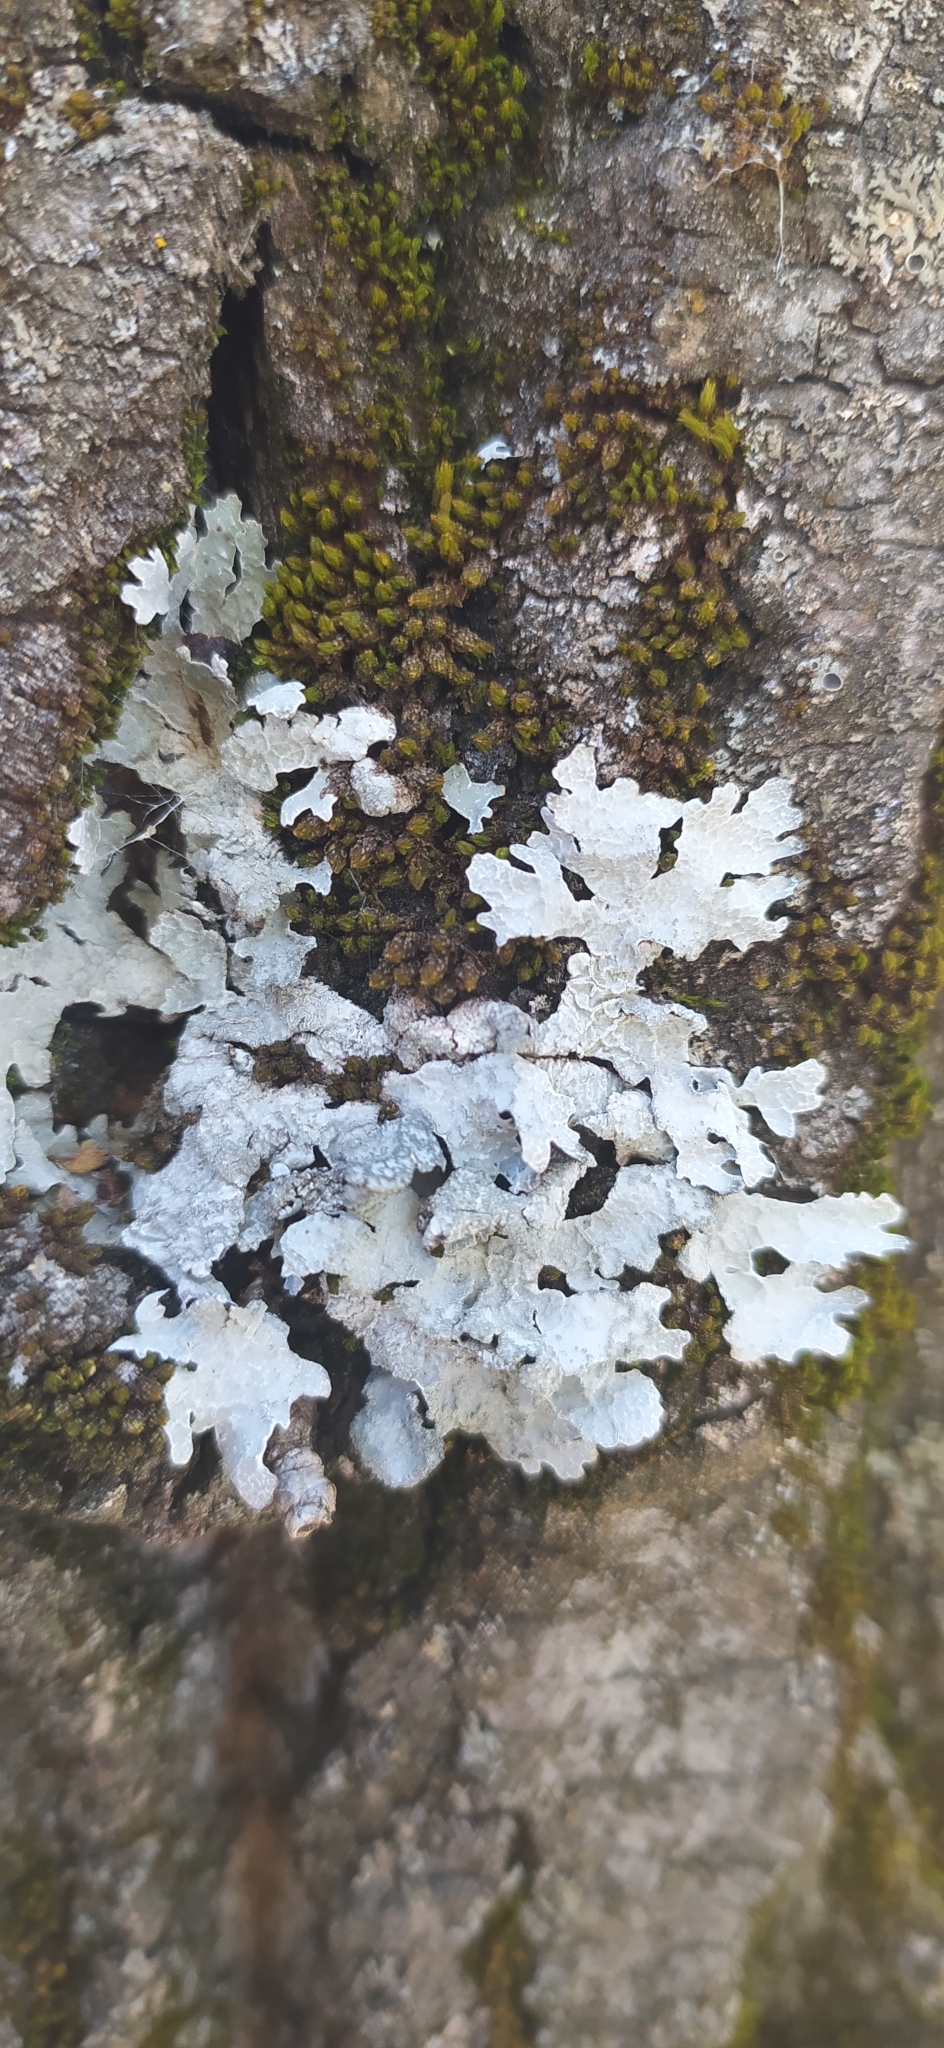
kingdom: Fungi
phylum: Ascomycota
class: Lecanoromycetes
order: Lecanorales
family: Parmeliaceae
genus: Parmelia
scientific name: Parmelia sulcata
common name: Netted shield lichen
